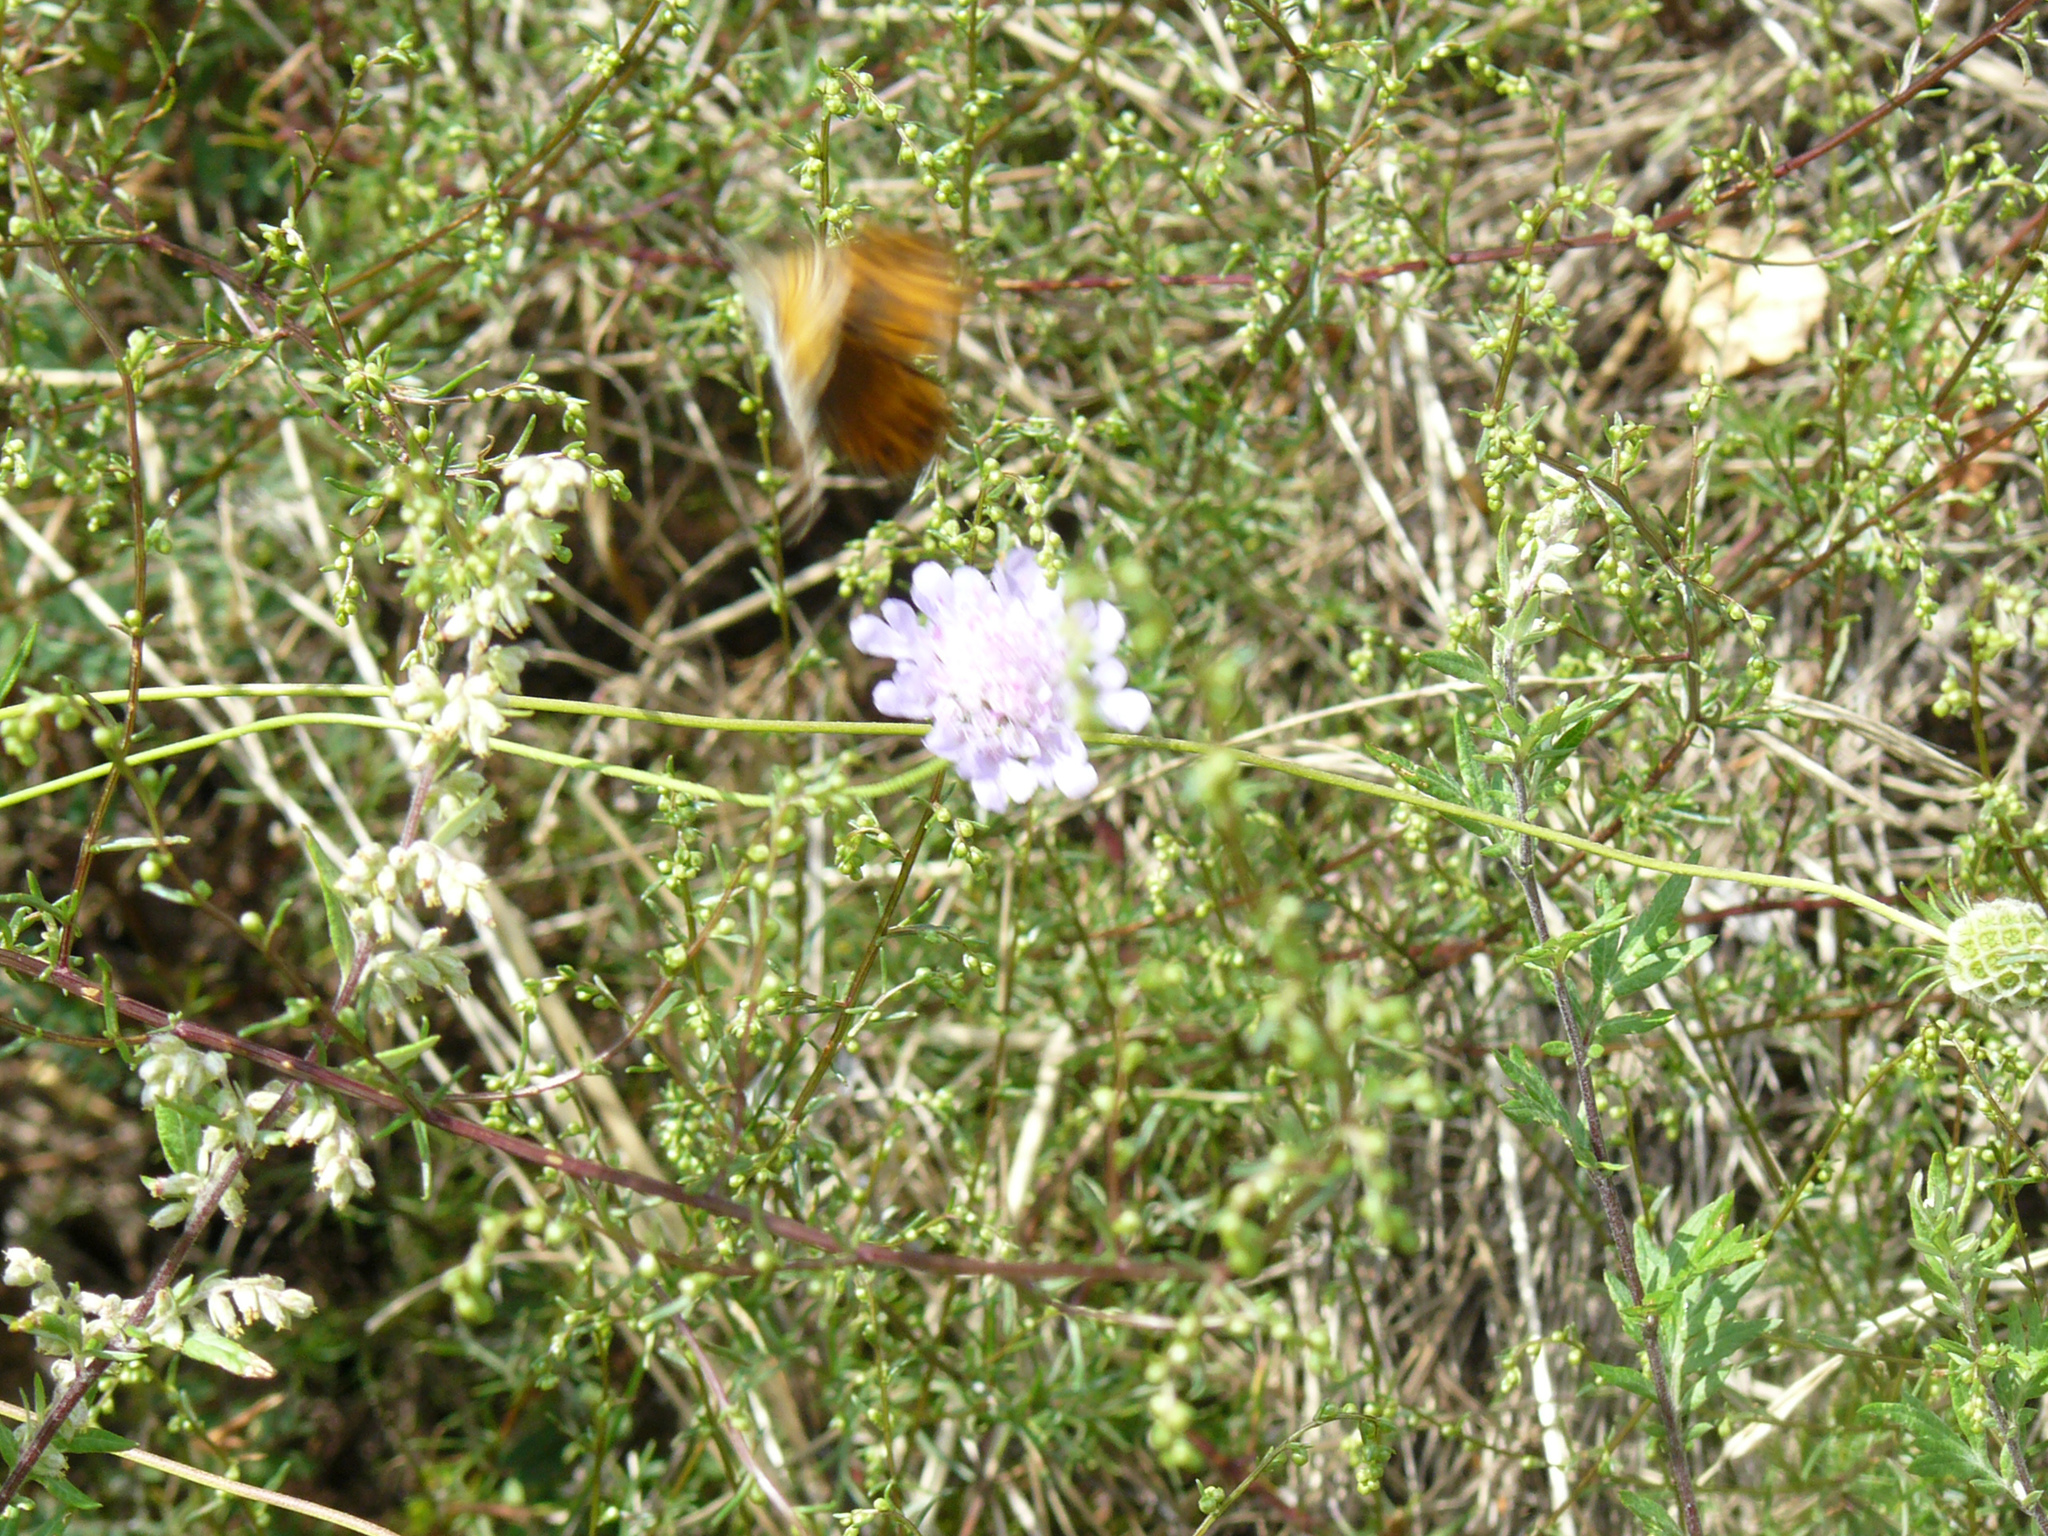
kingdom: Animalia
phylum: Arthropoda
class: Insecta
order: Lepidoptera
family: Nymphalidae
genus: Pararge
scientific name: Pararge Lasiommata megera
